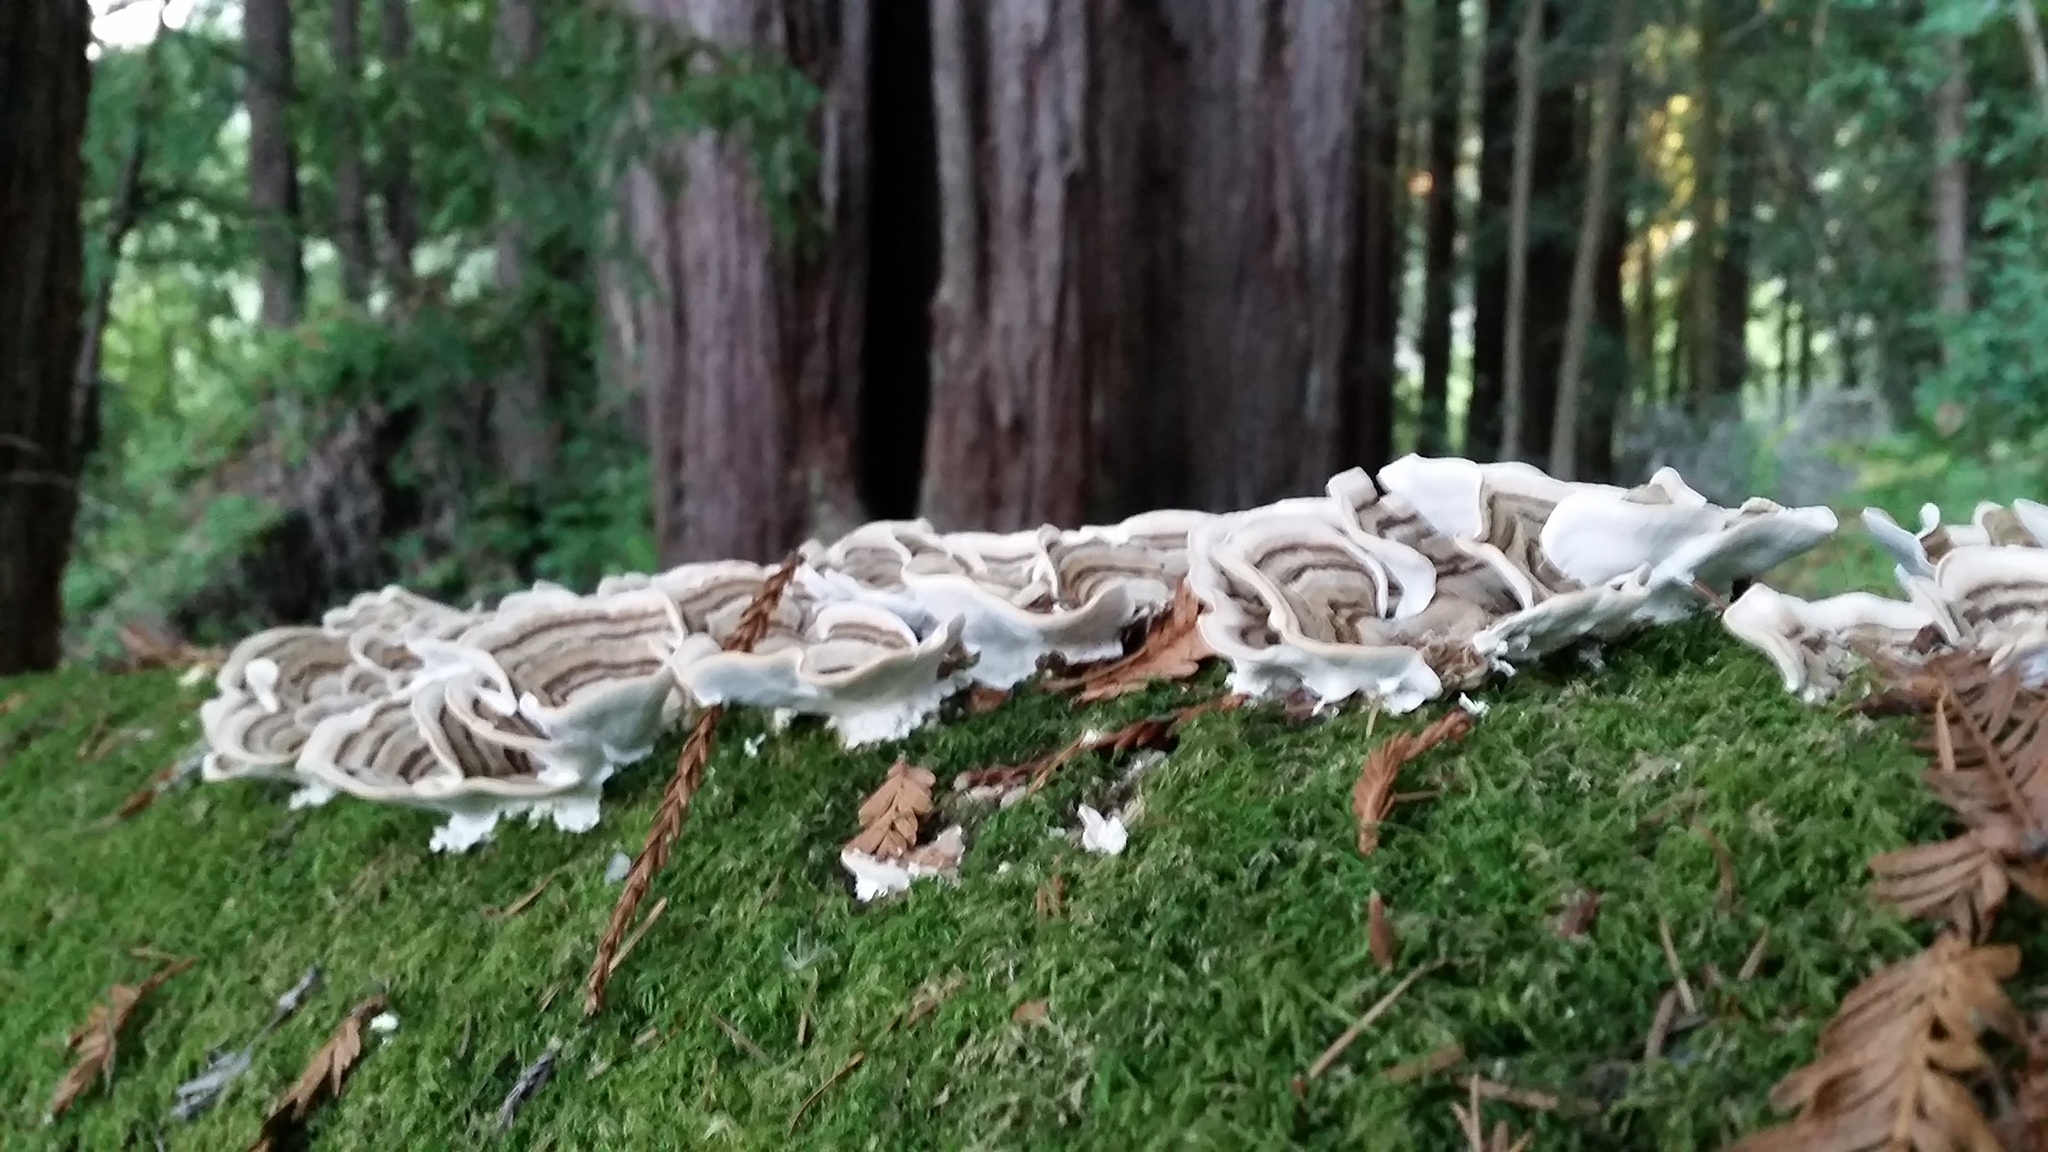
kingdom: Fungi
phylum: Basidiomycota
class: Agaricomycetes
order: Polyporales
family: Polyporaceae
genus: Trametes
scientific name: Trametes versicolor
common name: Turkeytail
